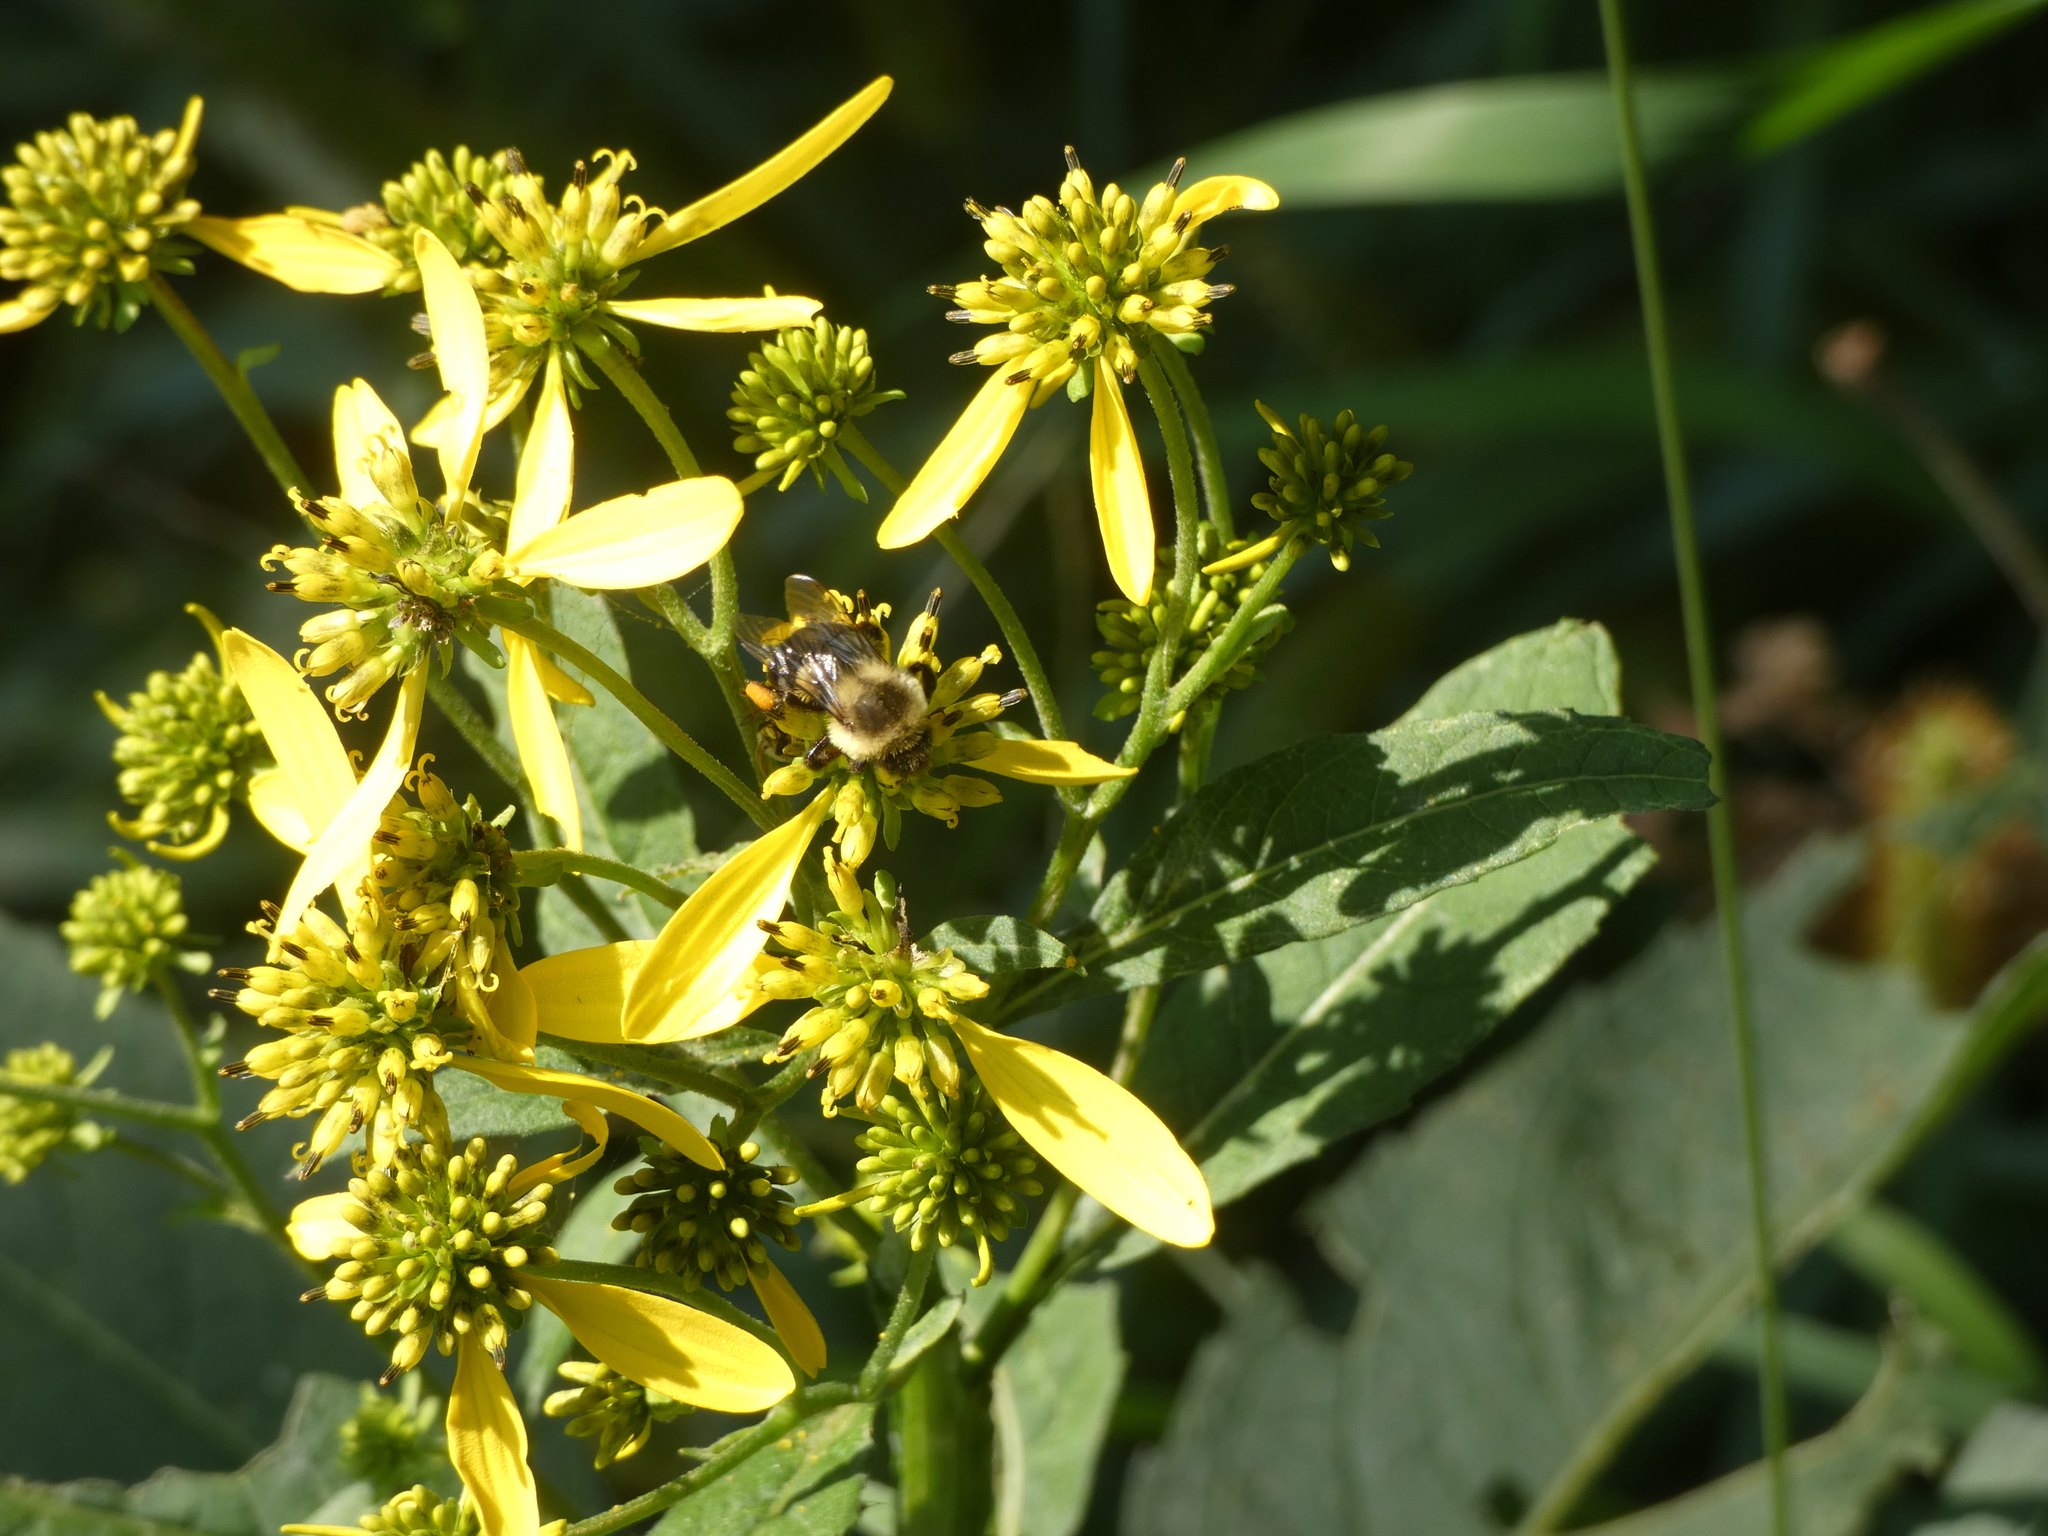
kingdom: Animalia
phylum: Arthropoda
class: Insecta
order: Hymenoptera
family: Apidae
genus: Bombus
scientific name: Bombus impatiens
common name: Common eastern bumble bee
